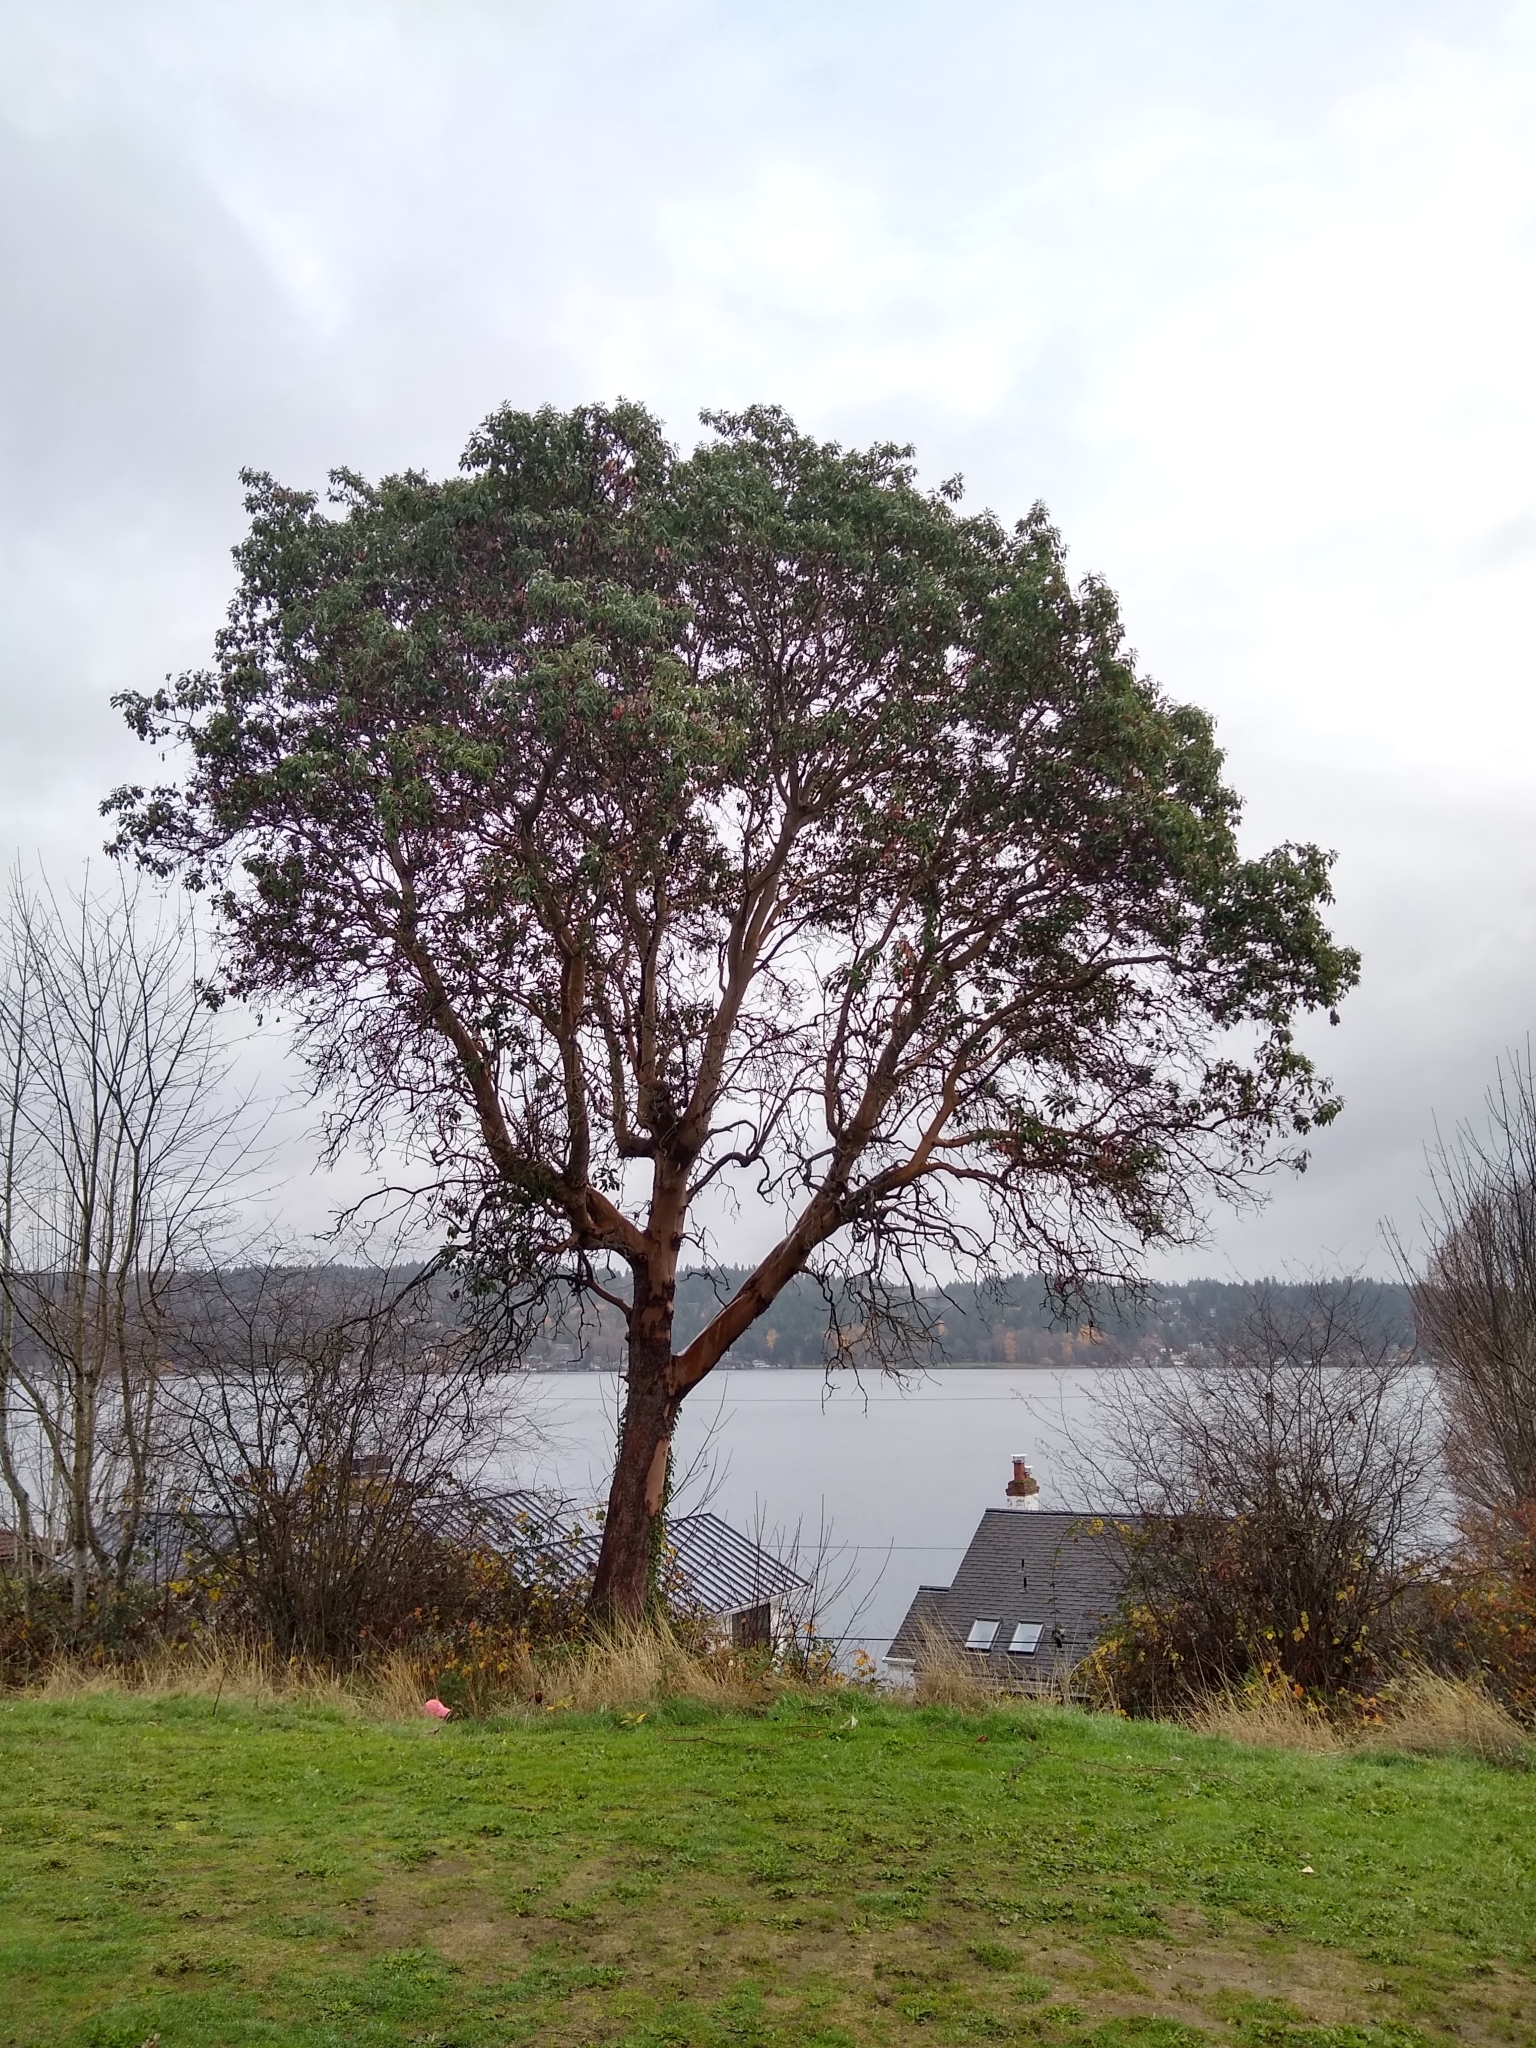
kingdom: Plantae
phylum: Tracheophyta
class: Magnoliopsida
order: Ericales
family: Ericaceae
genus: Arbutus
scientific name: Arbutus menziesii
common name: Pacific madrone
